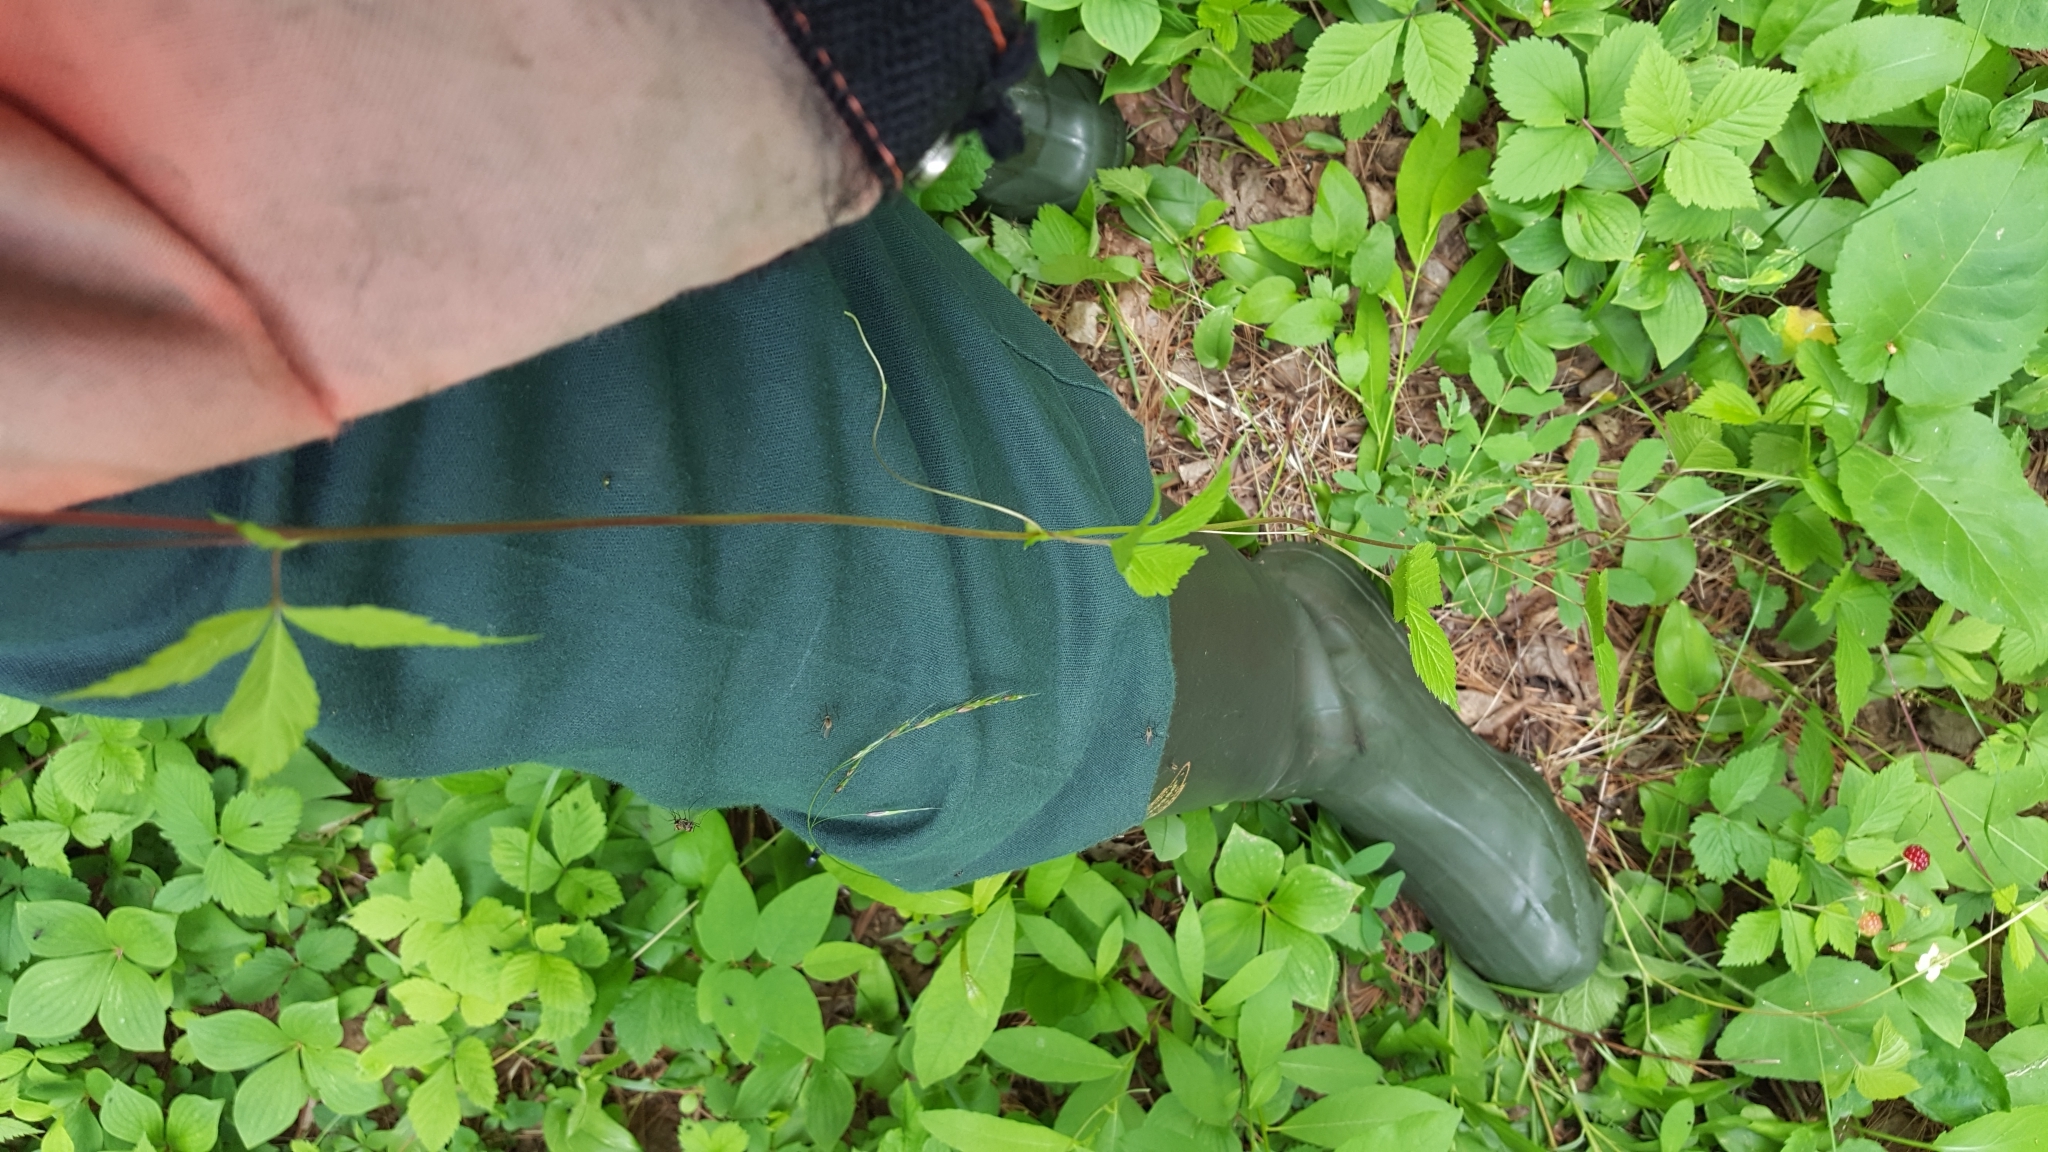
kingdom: Plantae
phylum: Tracheophyta
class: Magnoliopsida
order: Rosales
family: Rosaceae
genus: Rubus
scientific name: Rubus pubescens
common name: Dwarf raspberry
